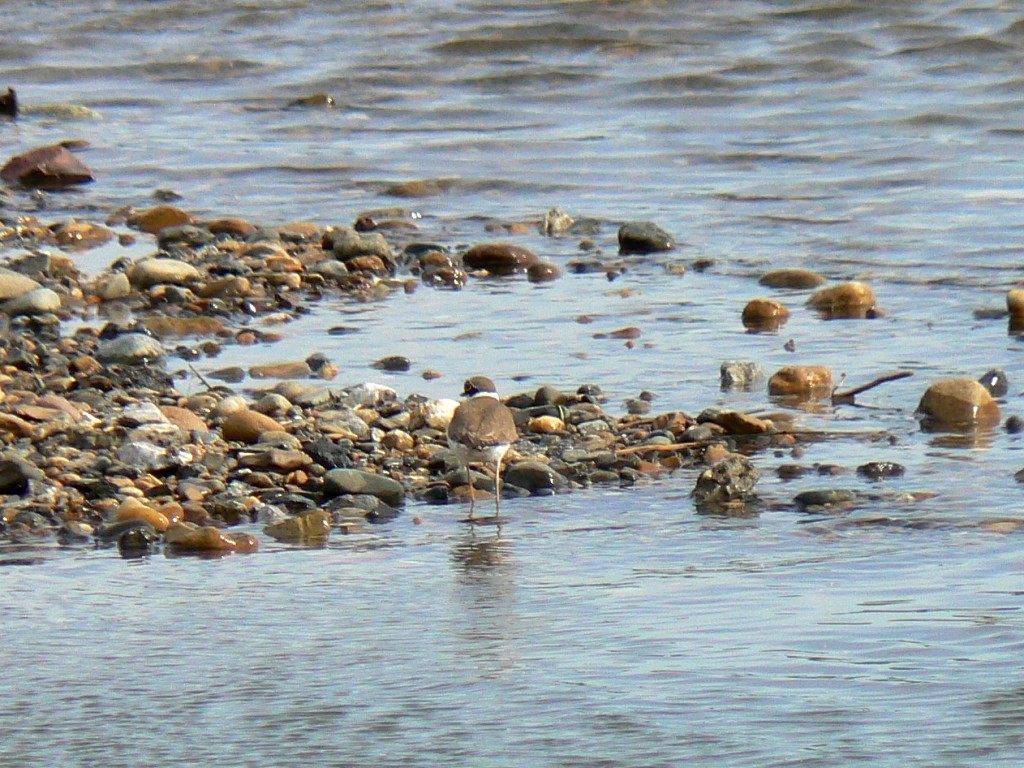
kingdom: Animalia
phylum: Chordata
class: Aves
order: Charadriiformes
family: Charadriidae
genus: Charadrius
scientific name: Charadrius dubius
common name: Little ringed plover
